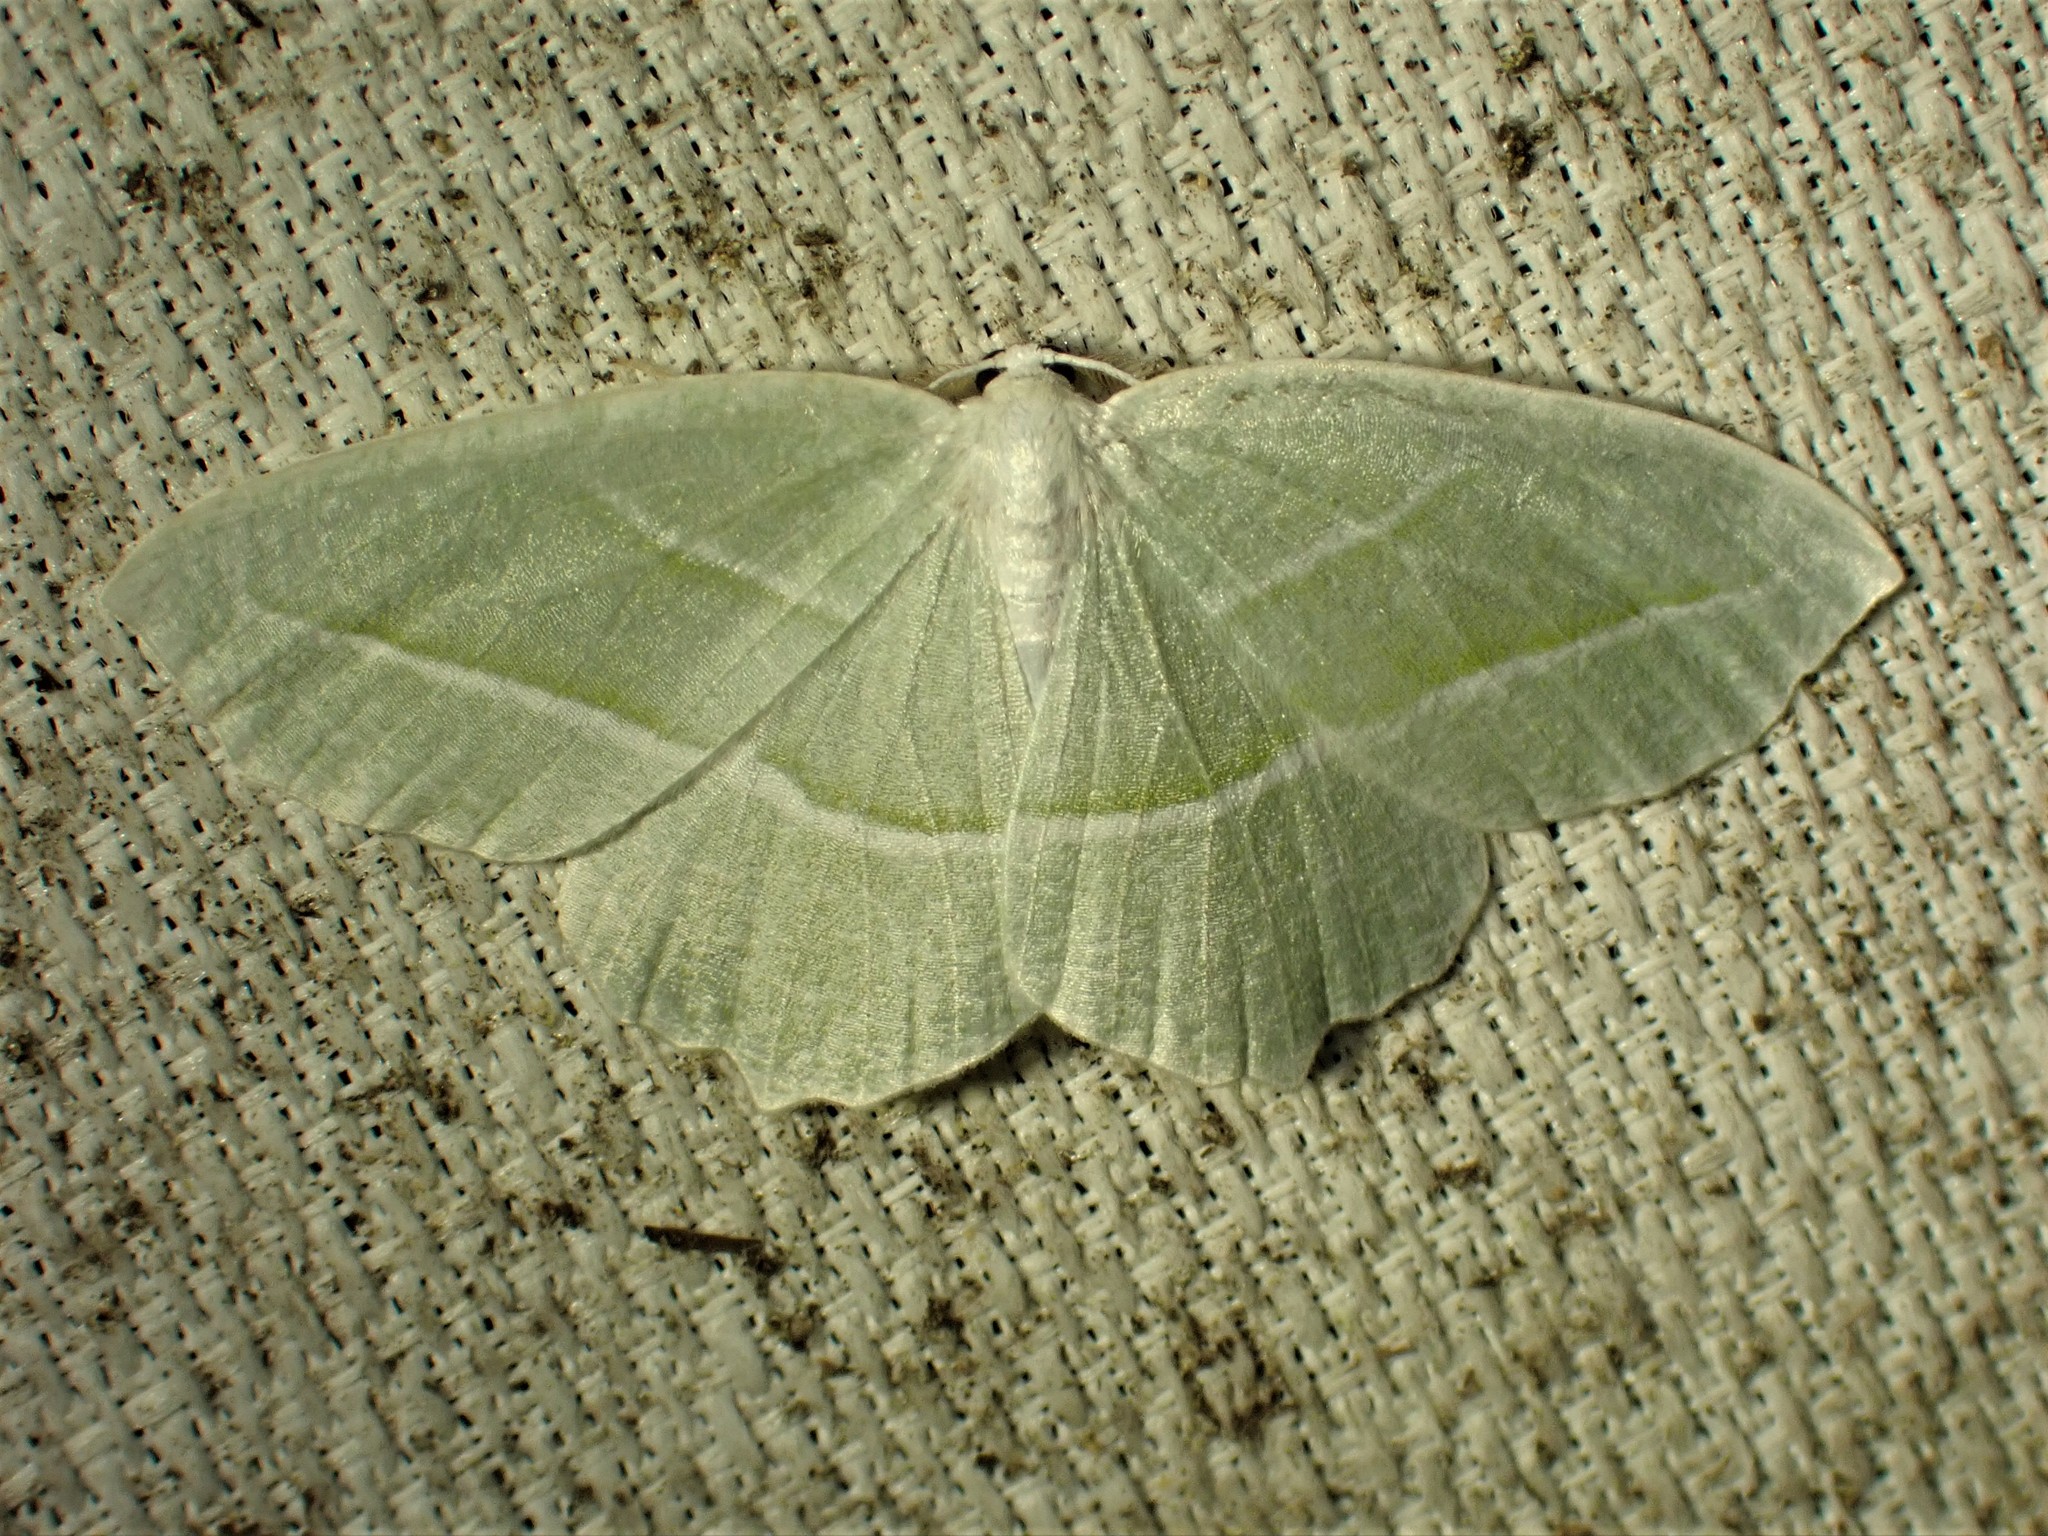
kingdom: Animalia
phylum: Arthropoda
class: Insecta
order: Lepidoptera
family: Geometridae
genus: Campaea
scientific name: Campaea perlata
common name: Fringed looper
